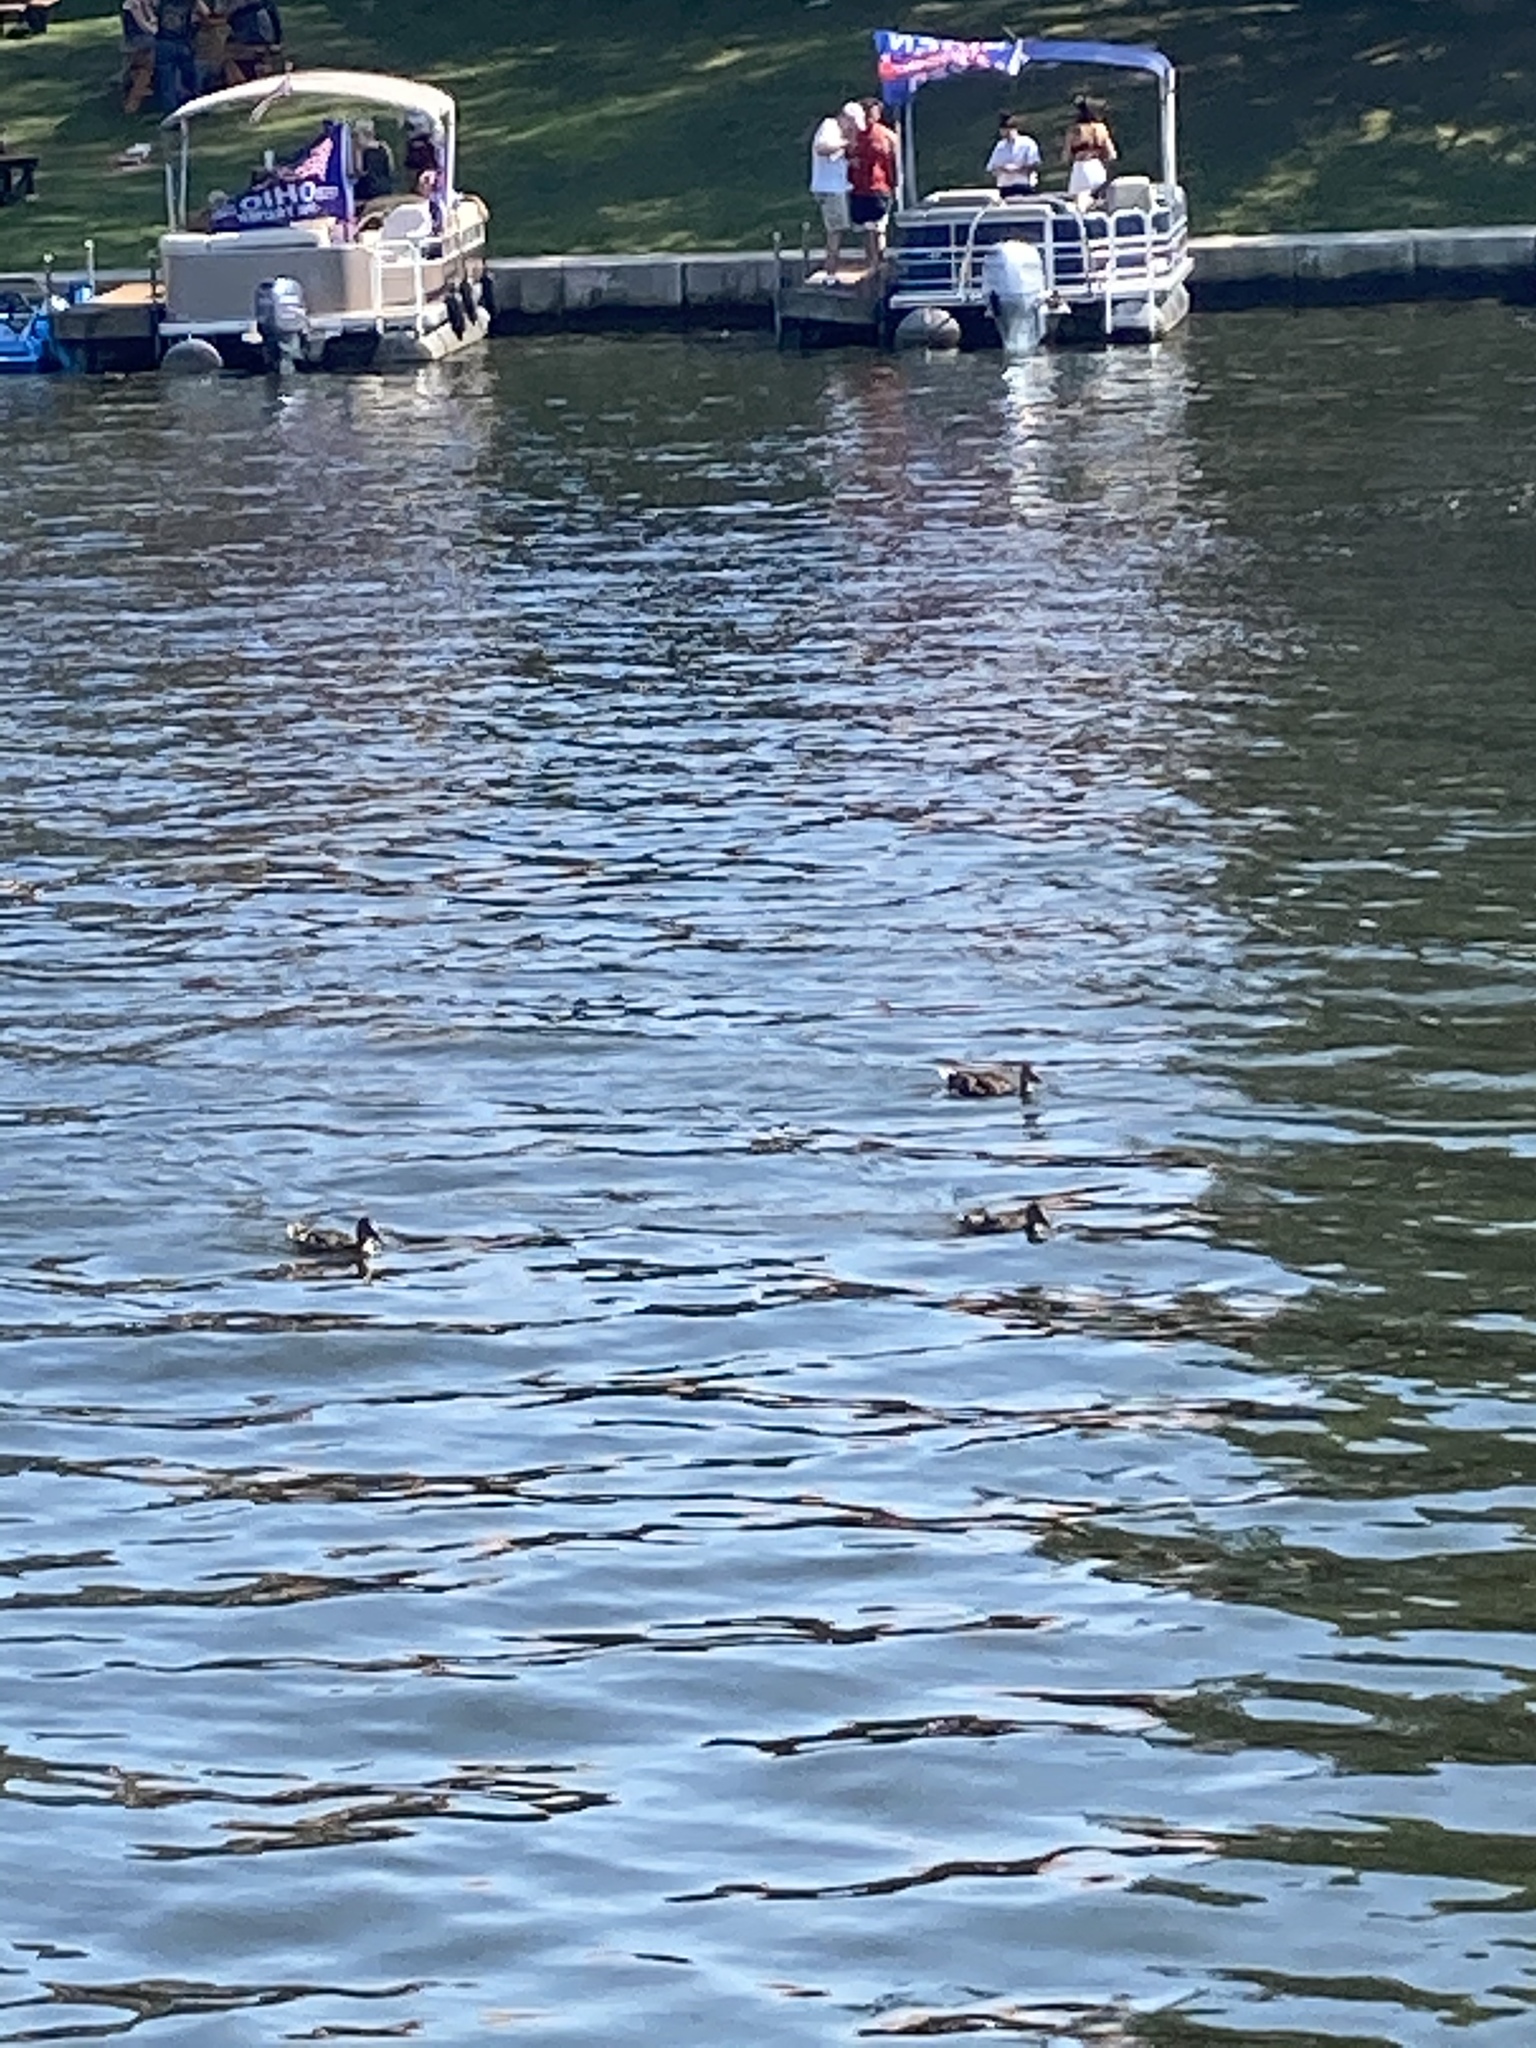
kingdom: Animalia
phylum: Chordata
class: Aves
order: Anseriformes
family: Anatidae
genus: Anas
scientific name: Anas platyrhynchos
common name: Mallard
